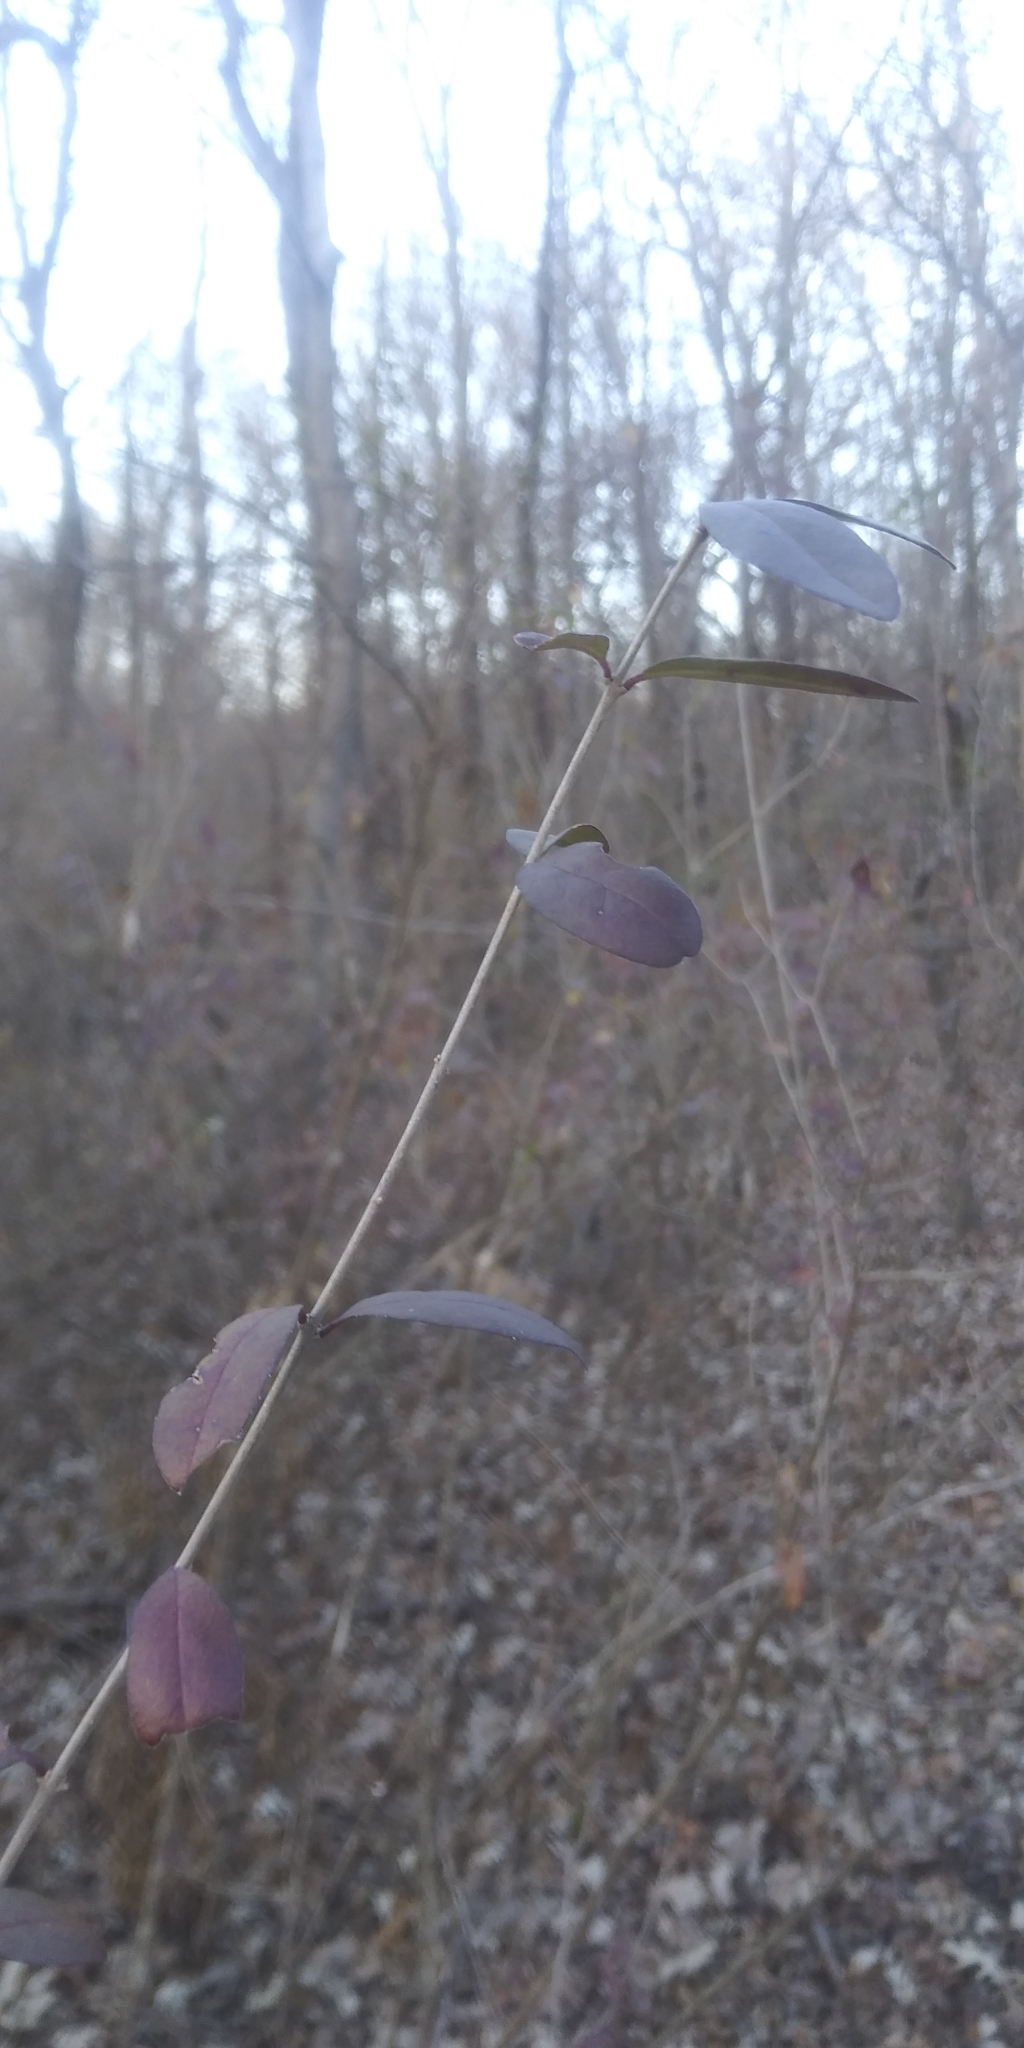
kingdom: Plantae
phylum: Tracheophyta
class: Magnoliopsida
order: Lamiales
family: Oleaceae
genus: Ligustrum
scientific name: Ligustrum quihoui
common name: Waxyleaf privet
